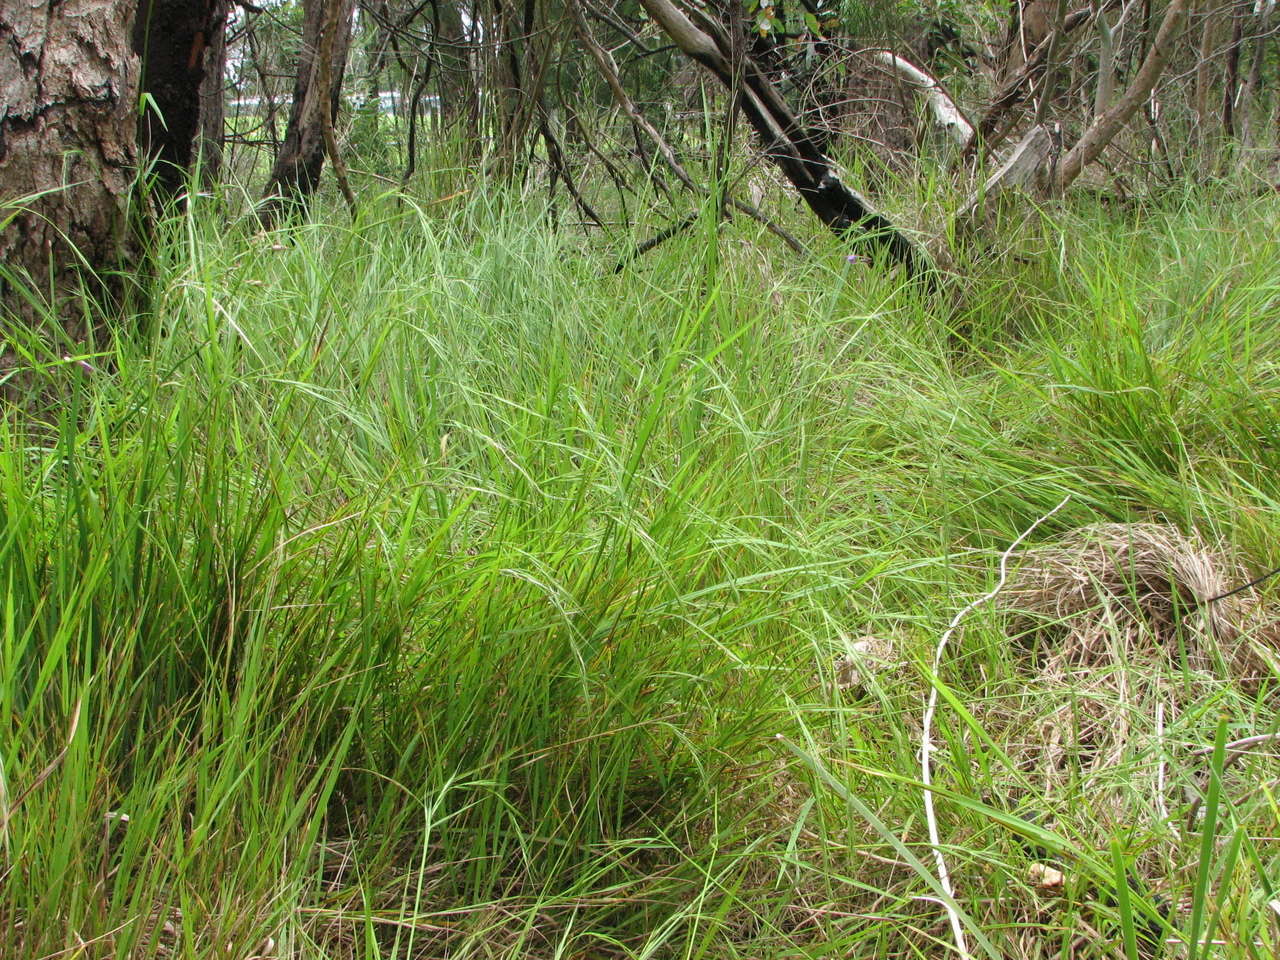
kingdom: Plantae
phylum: Tracheophyta
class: Liliopsida
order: Poales
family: Poaceae
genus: Microlaena
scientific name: Microlaena stipoides
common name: Meadow ricegrass
